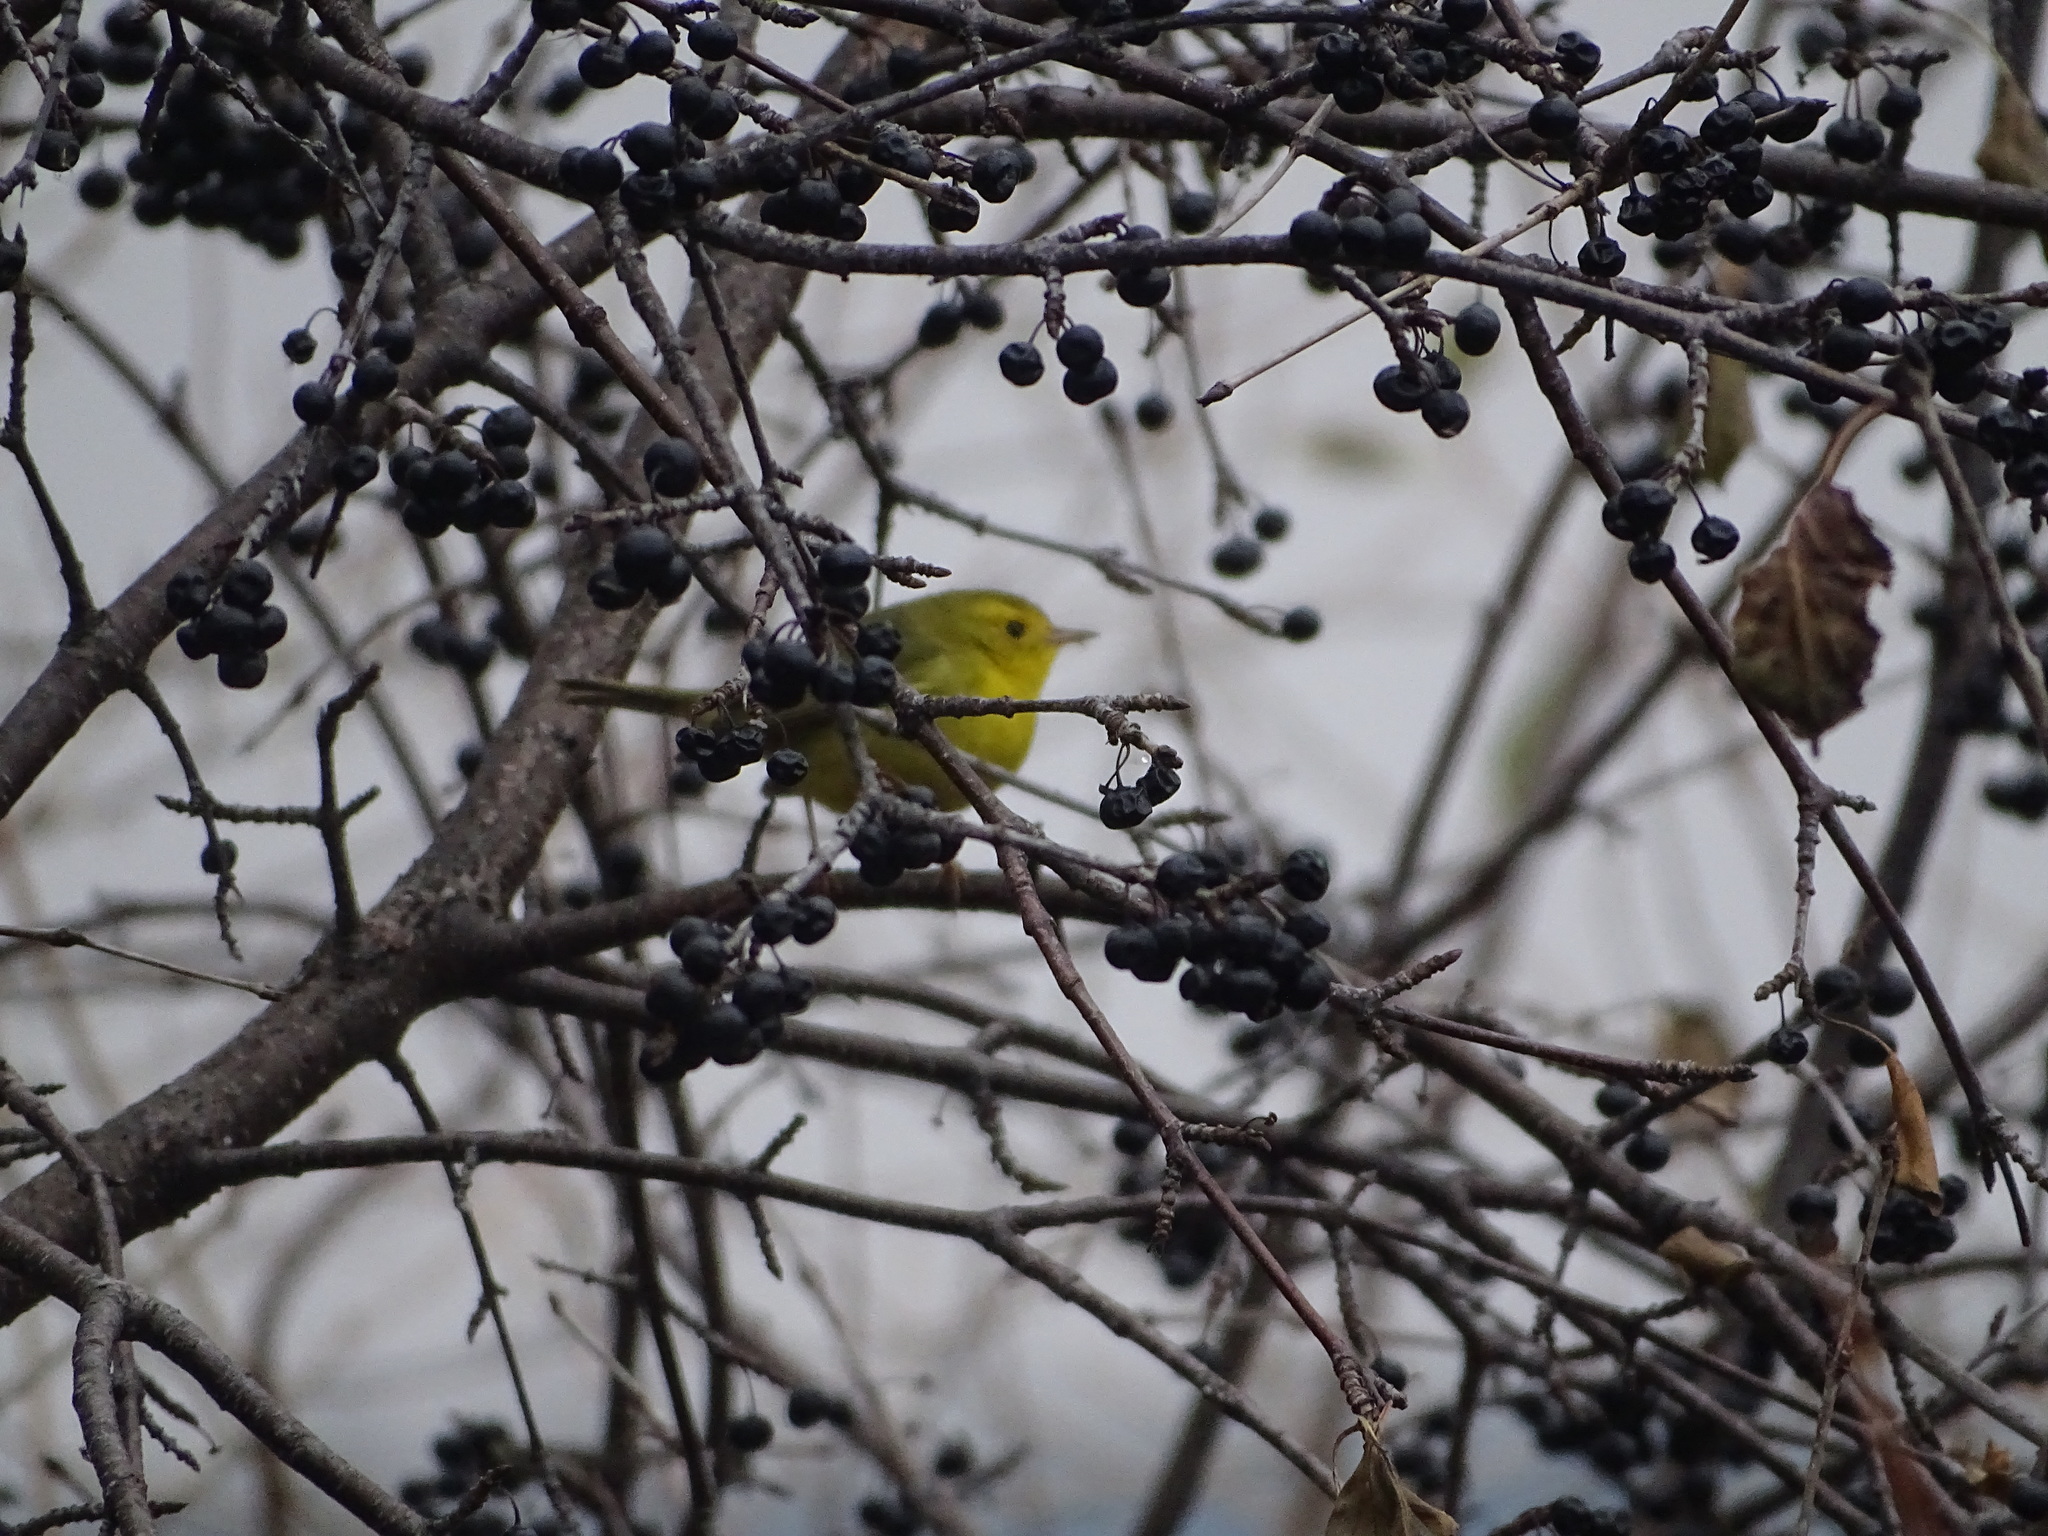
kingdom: Animalia
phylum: Chordata
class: Aves
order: Passeriformes
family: Parulidae
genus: Cardellina
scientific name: Cardellina pusilla
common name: Wilson's warbler
